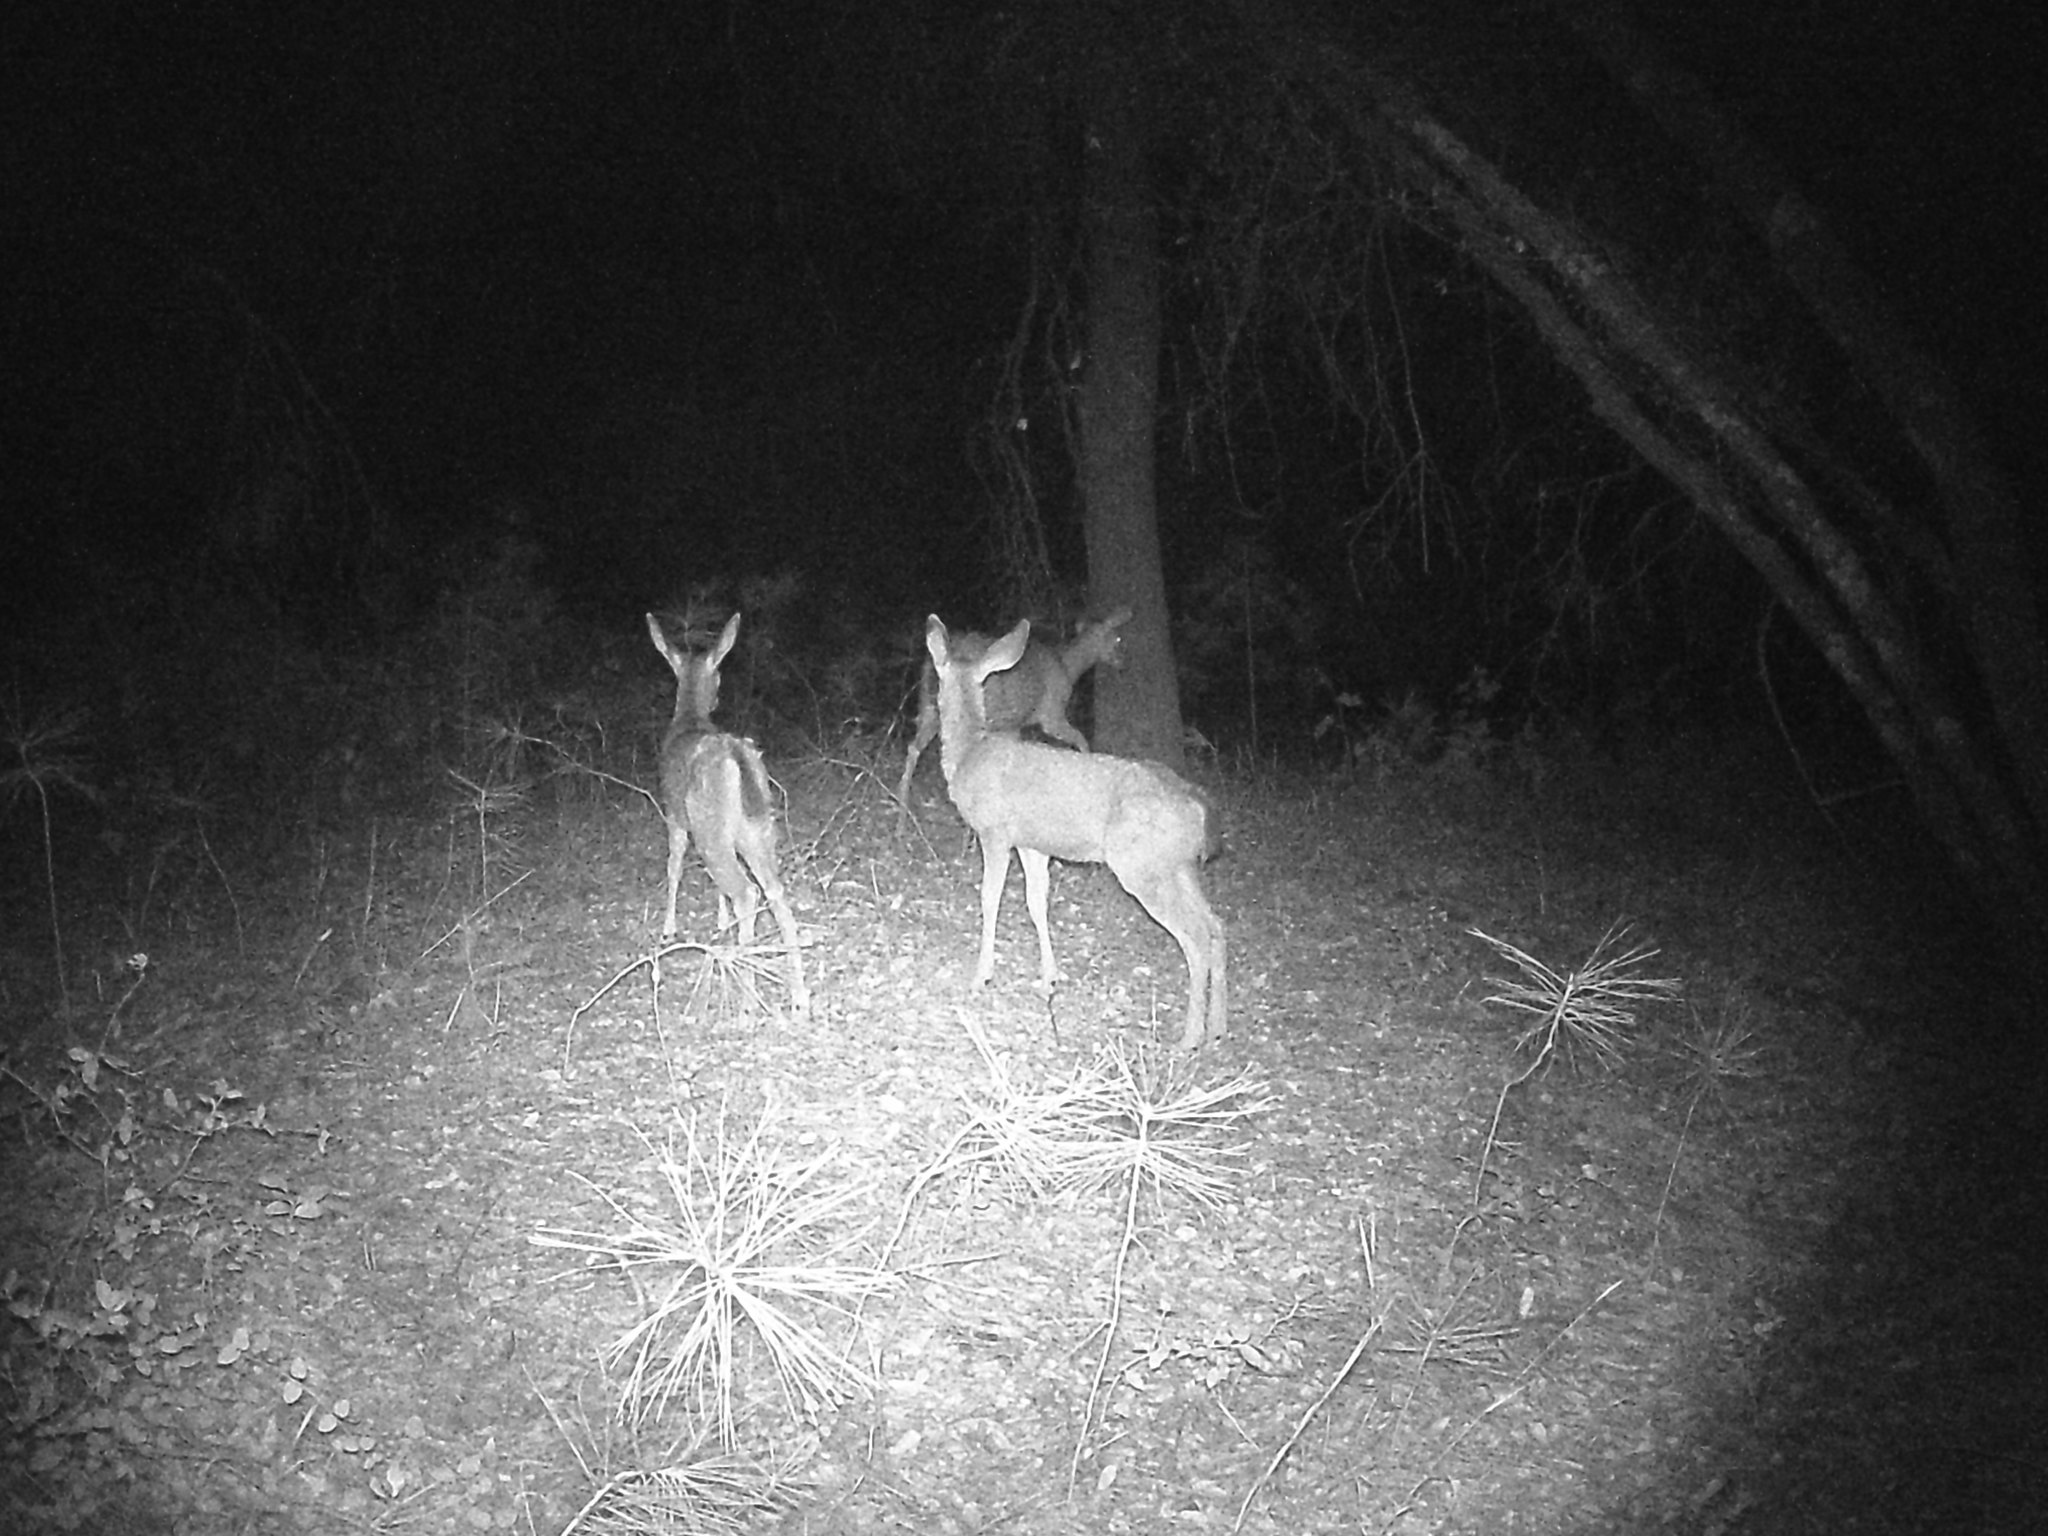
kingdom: Animalia
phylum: Chordata
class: Mammalia
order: Artiodactyla
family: Cervidae
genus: Odocoileus
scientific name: Odocoileus hemionus
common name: Mule deer
